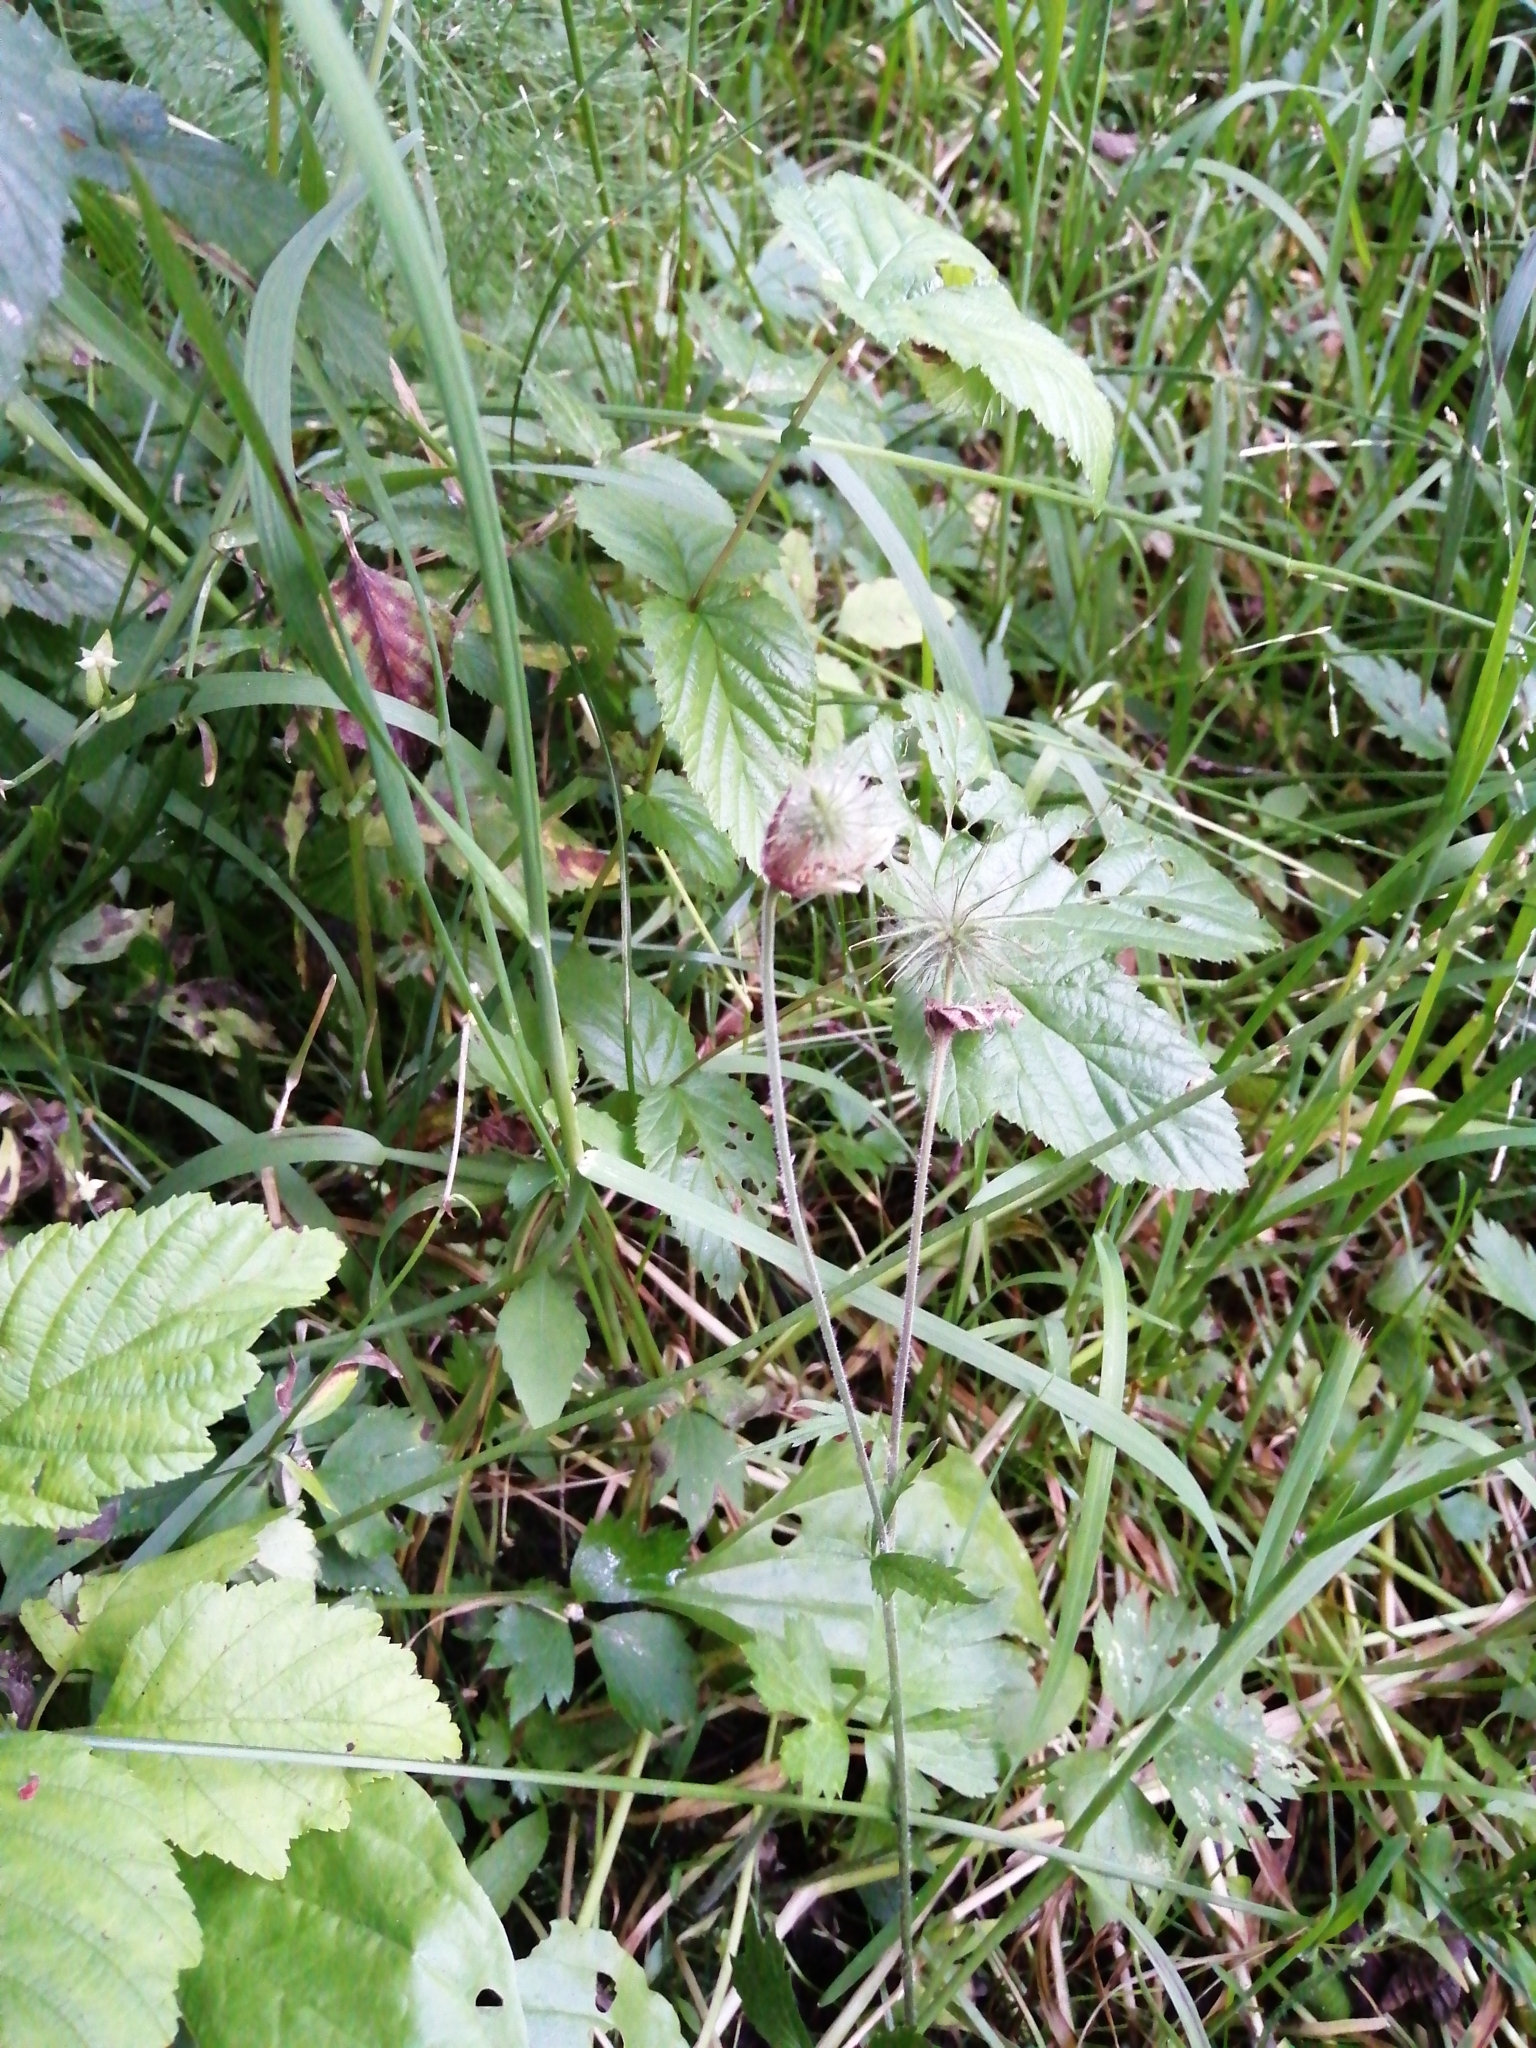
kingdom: Plantae
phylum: Tracheophyta
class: Magnoliopsida
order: Rosales
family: Rosaceae
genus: Geum
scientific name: Geum rivale
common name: Water avens
